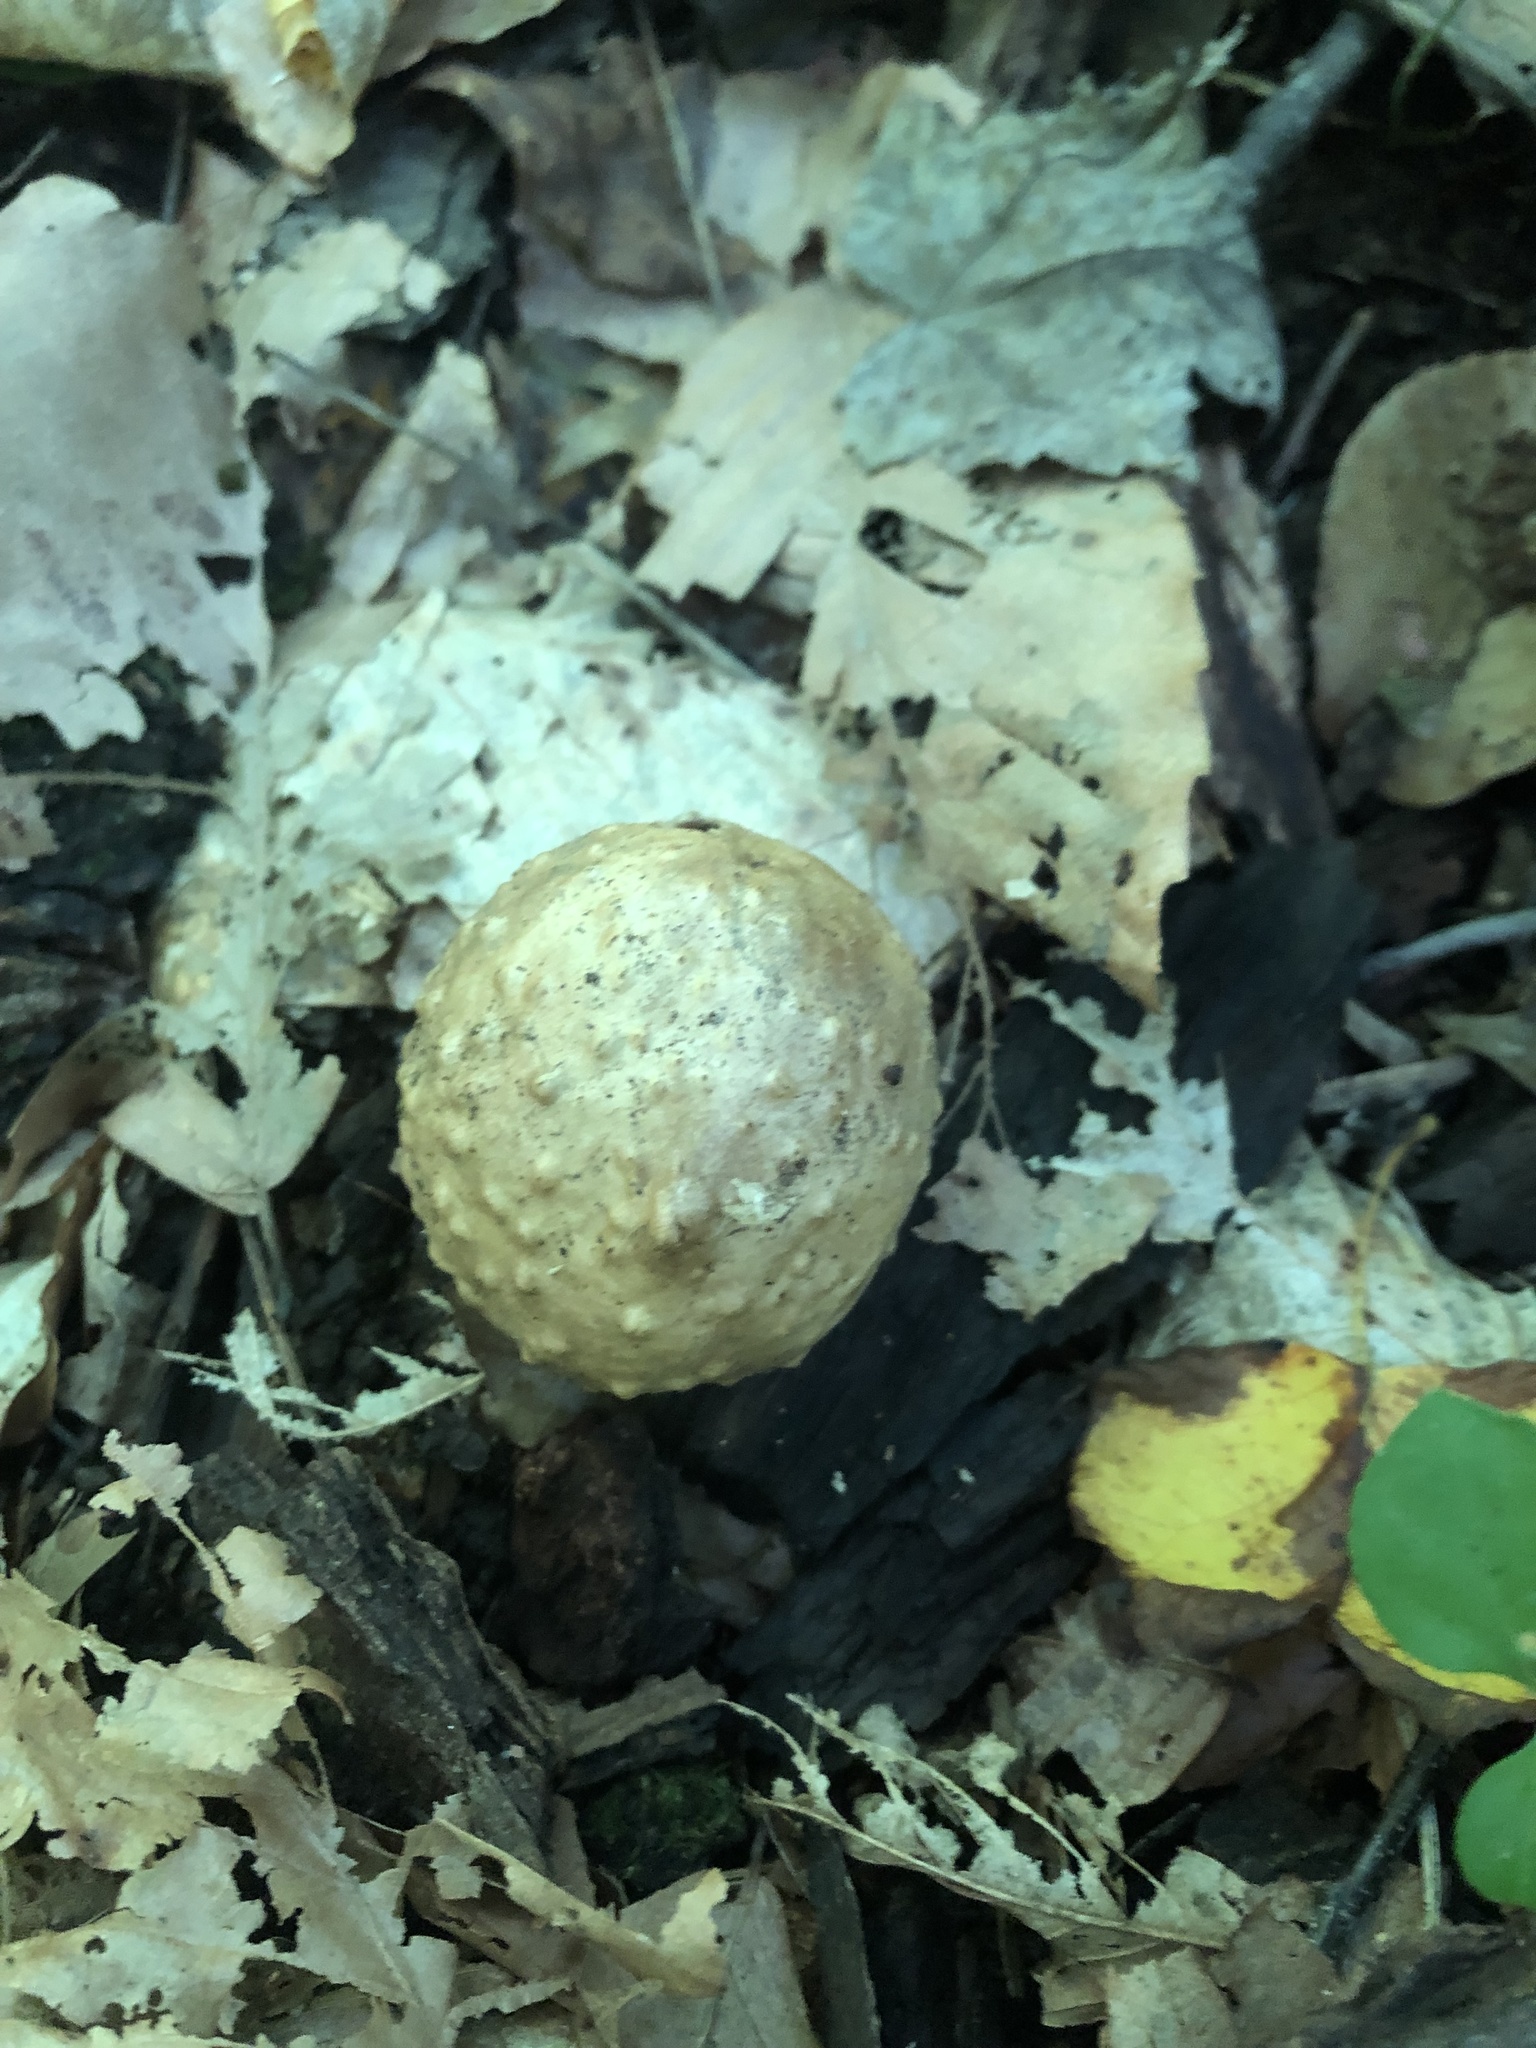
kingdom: Animalia
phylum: Arthropoda
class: Insecta
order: Hymenoptera
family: Cynipidae
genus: Amphibolips
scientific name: Amphibolips
